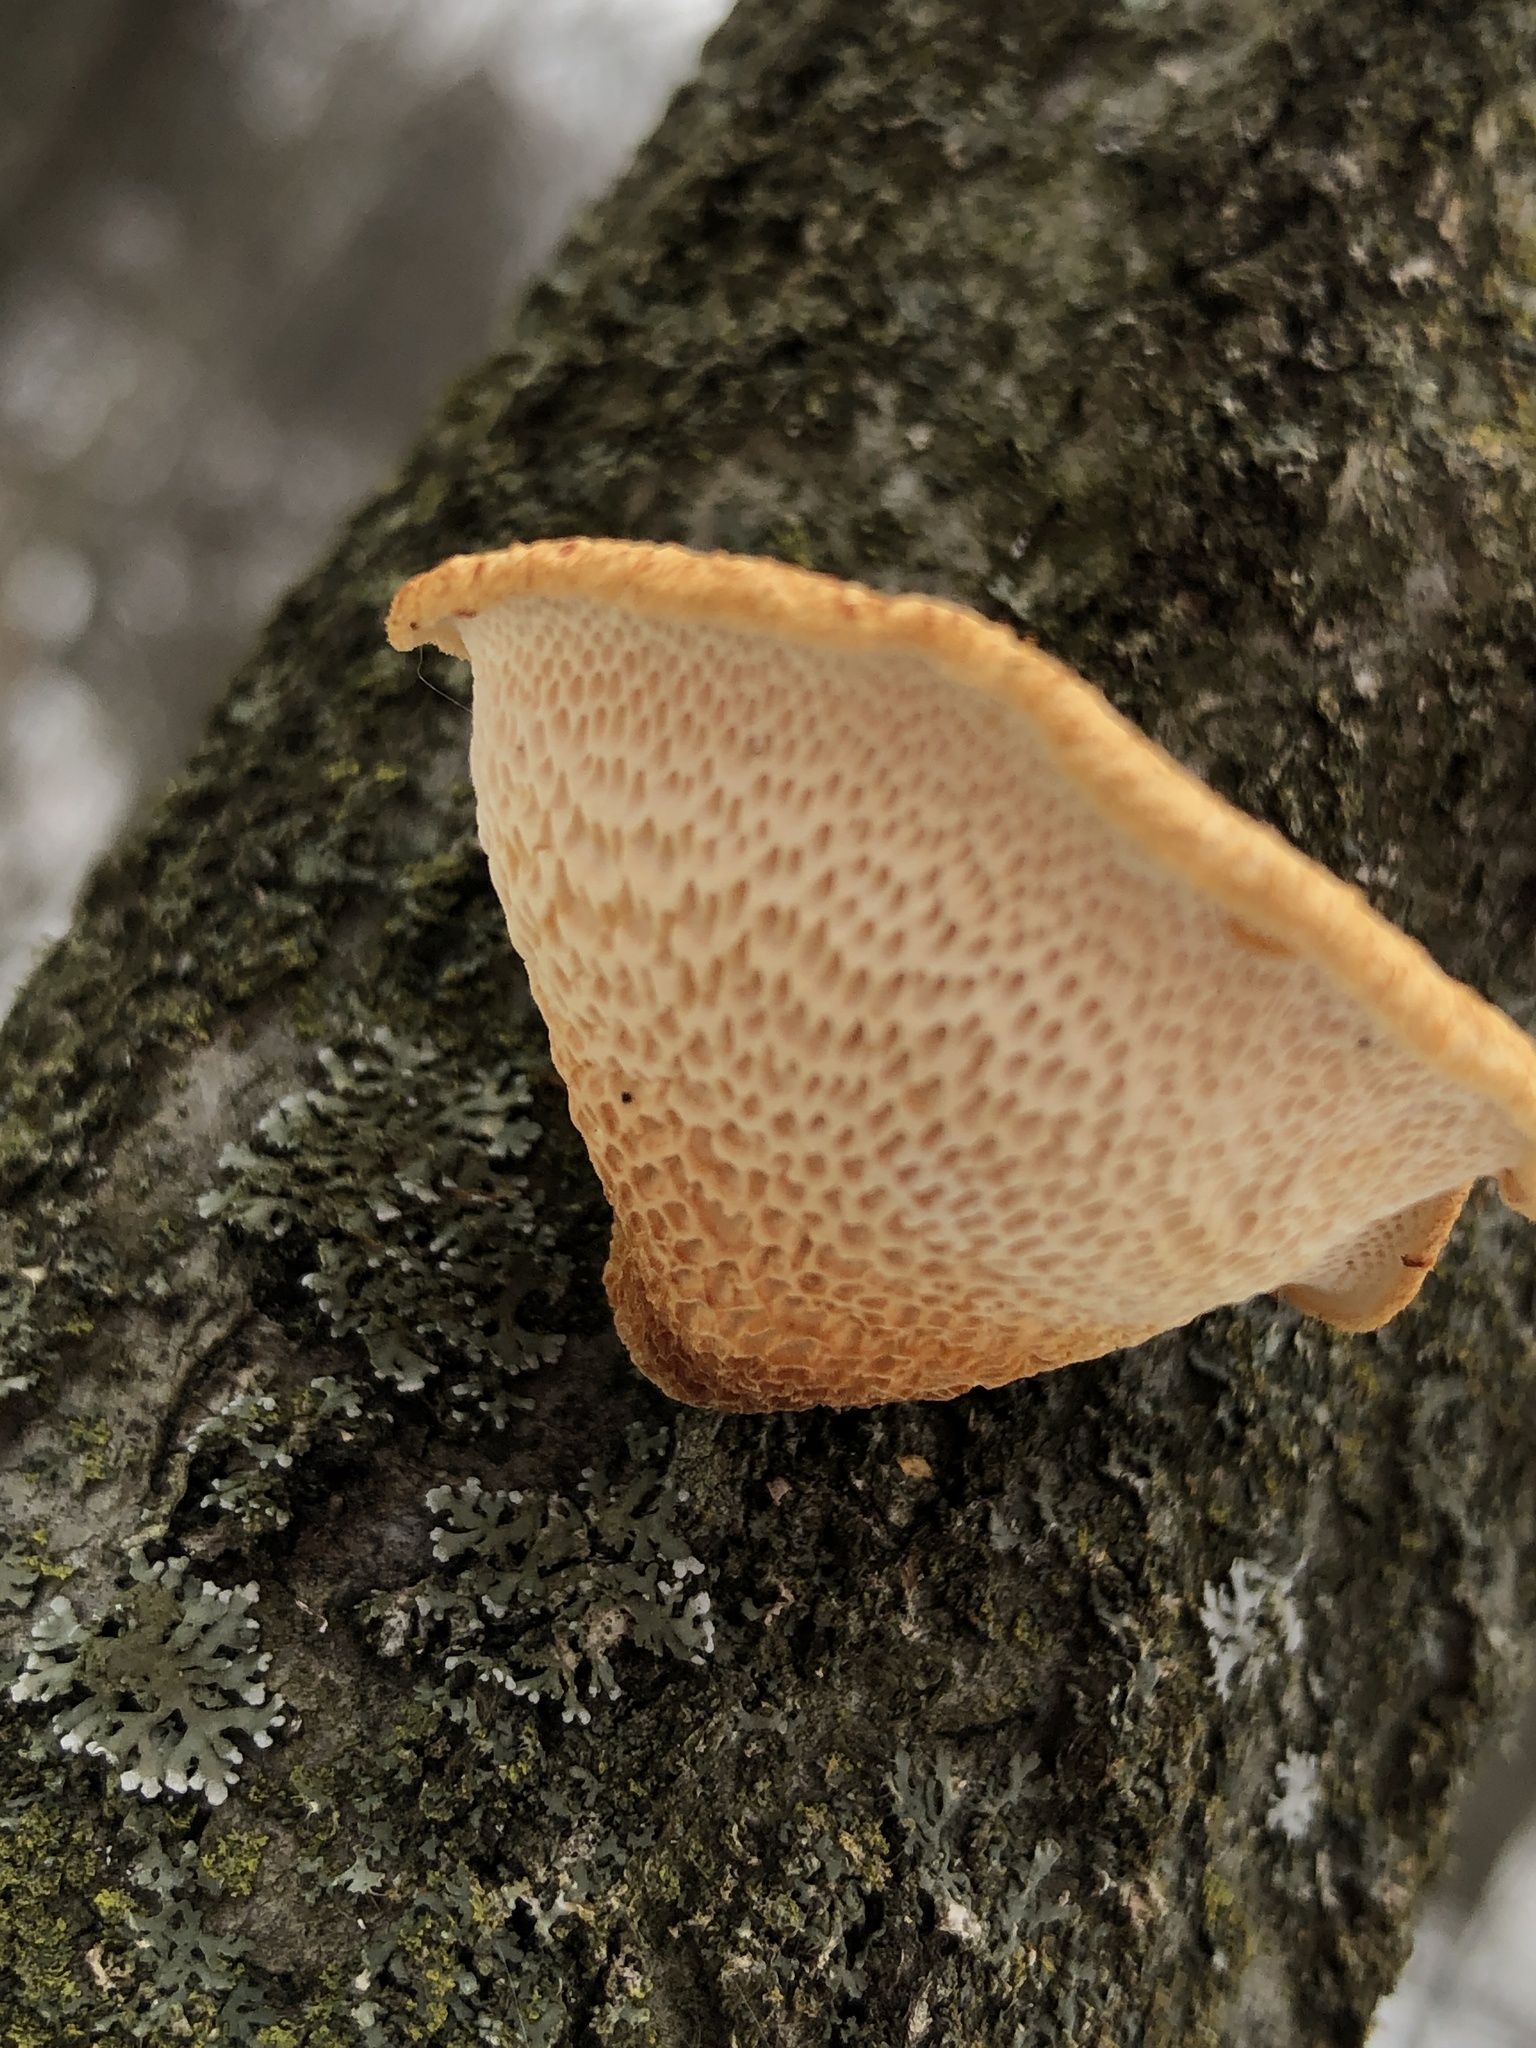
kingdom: Fungi
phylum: Basidiomycota
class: Agaricomycetes
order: Polyporales
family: Polyporaceae
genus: Neofavolus
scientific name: Neofavolus alveolaris
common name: Hexagonal-pored polypore
